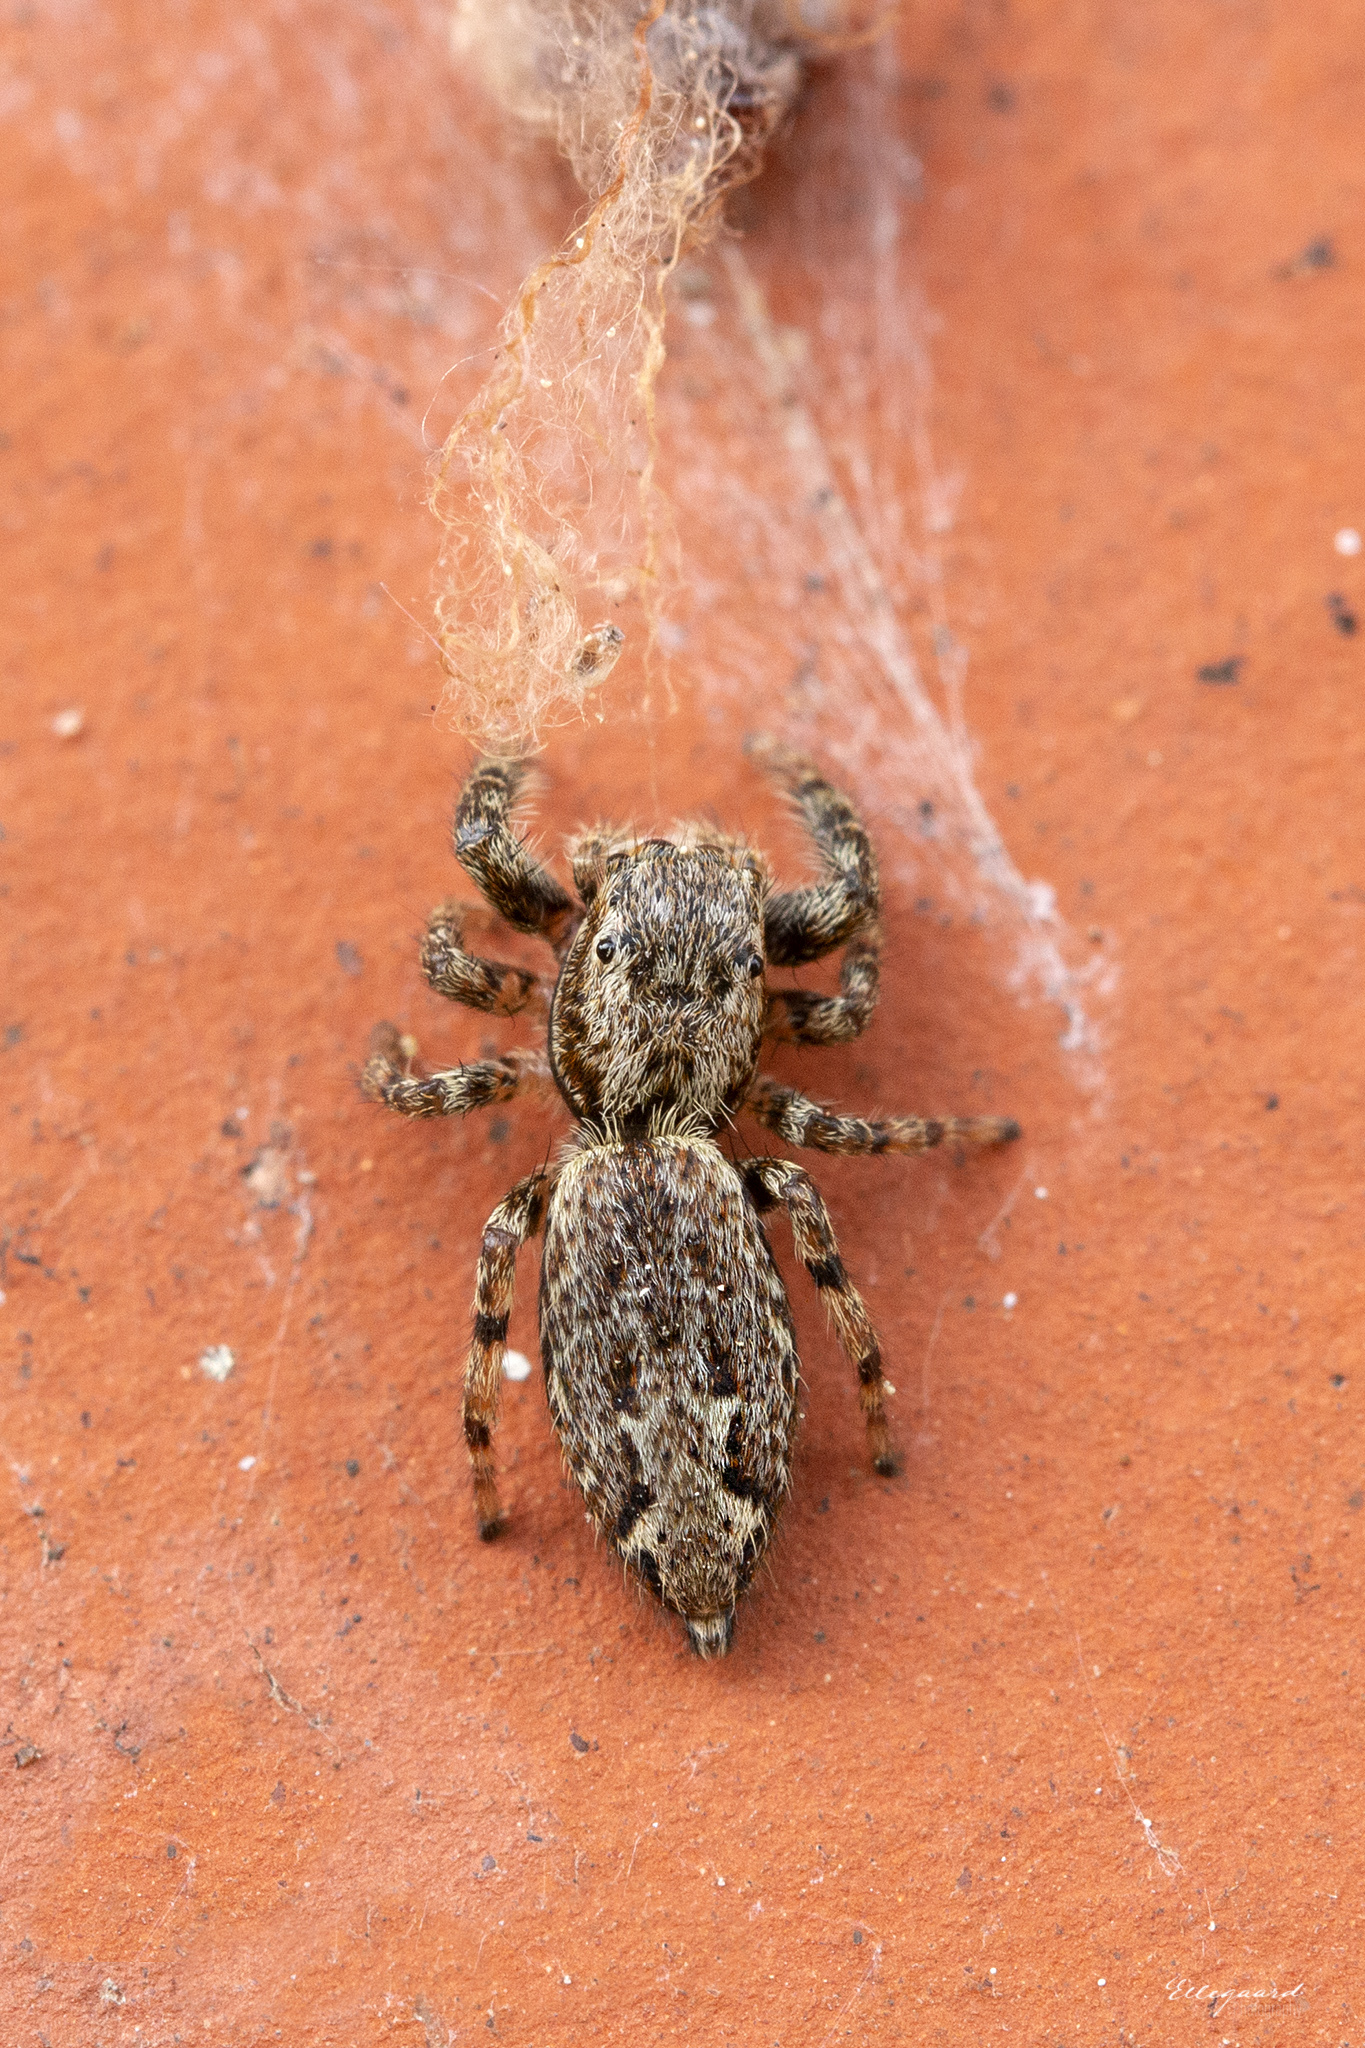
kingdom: Animalia
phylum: Arthropoda
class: Arachnida
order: Araneae
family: Salticidae
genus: Marpissa
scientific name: Marpissa muscosa
